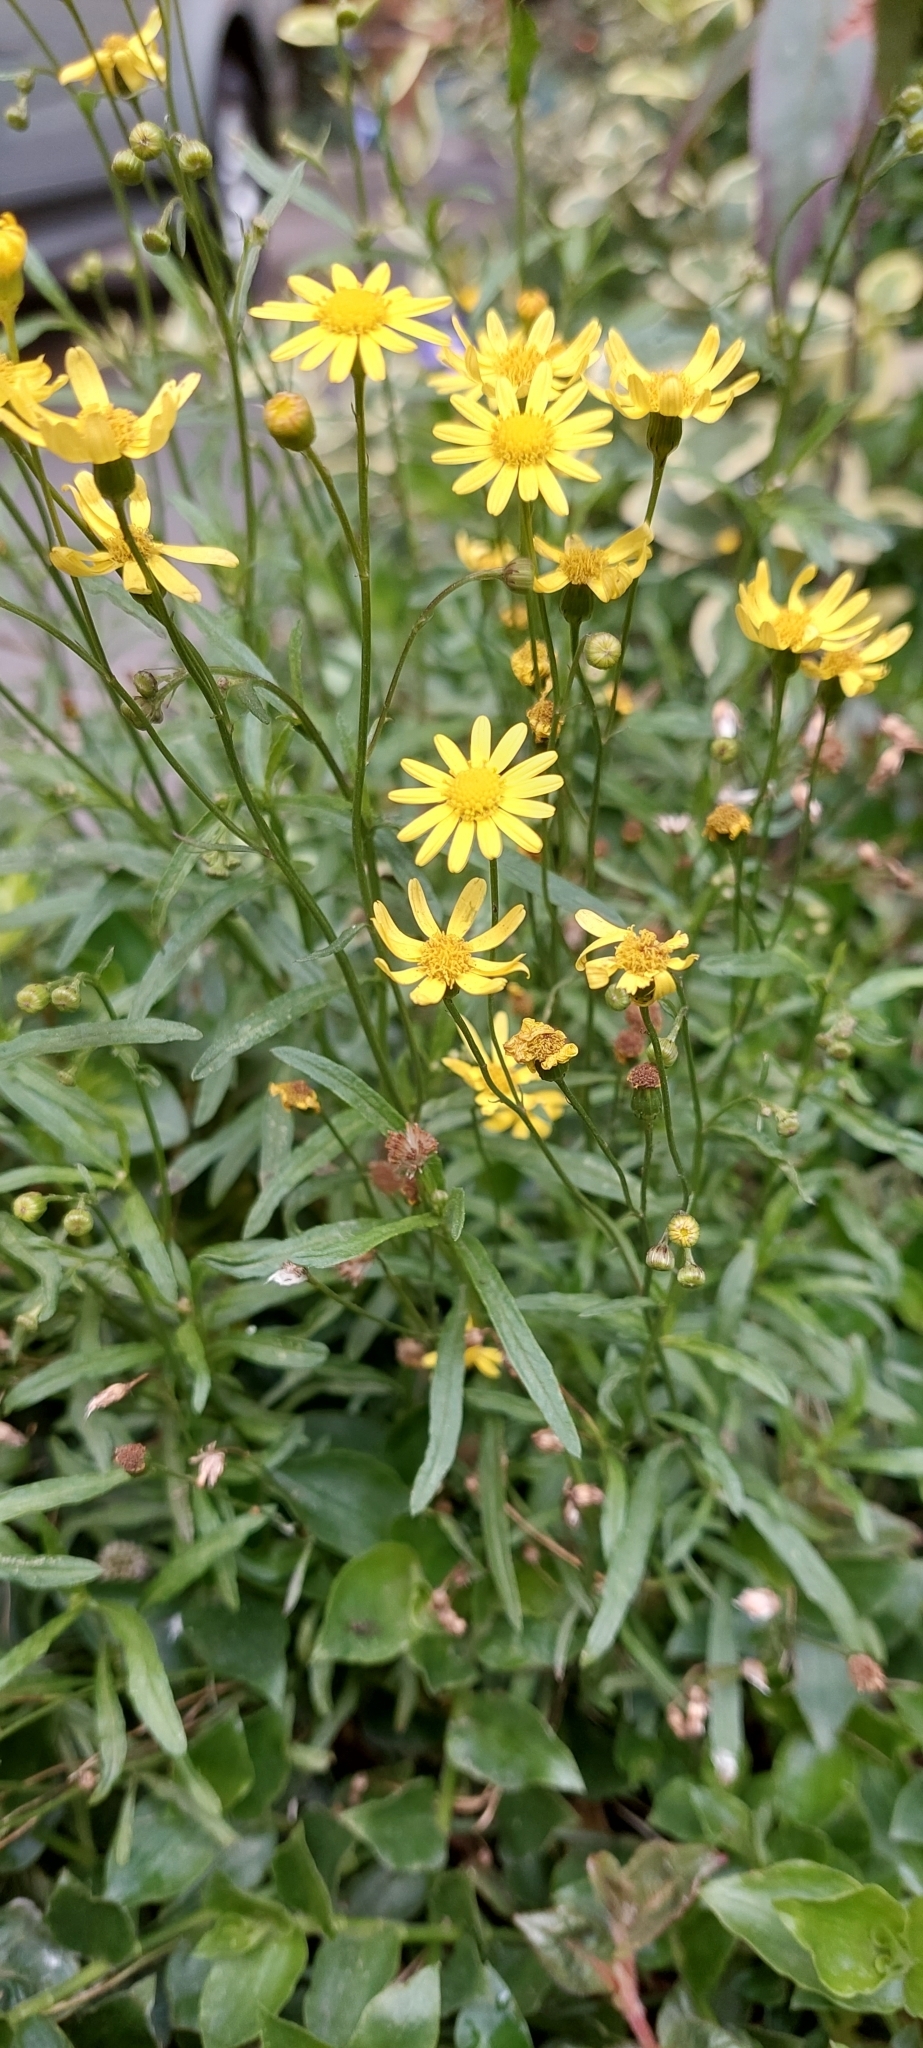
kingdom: Plantae
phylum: Tracheophyta
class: Magnoliopsida
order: Asterales
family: Asteraceae
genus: Senecio
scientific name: Senecio madagascariensis
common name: Madagascar ragwort
